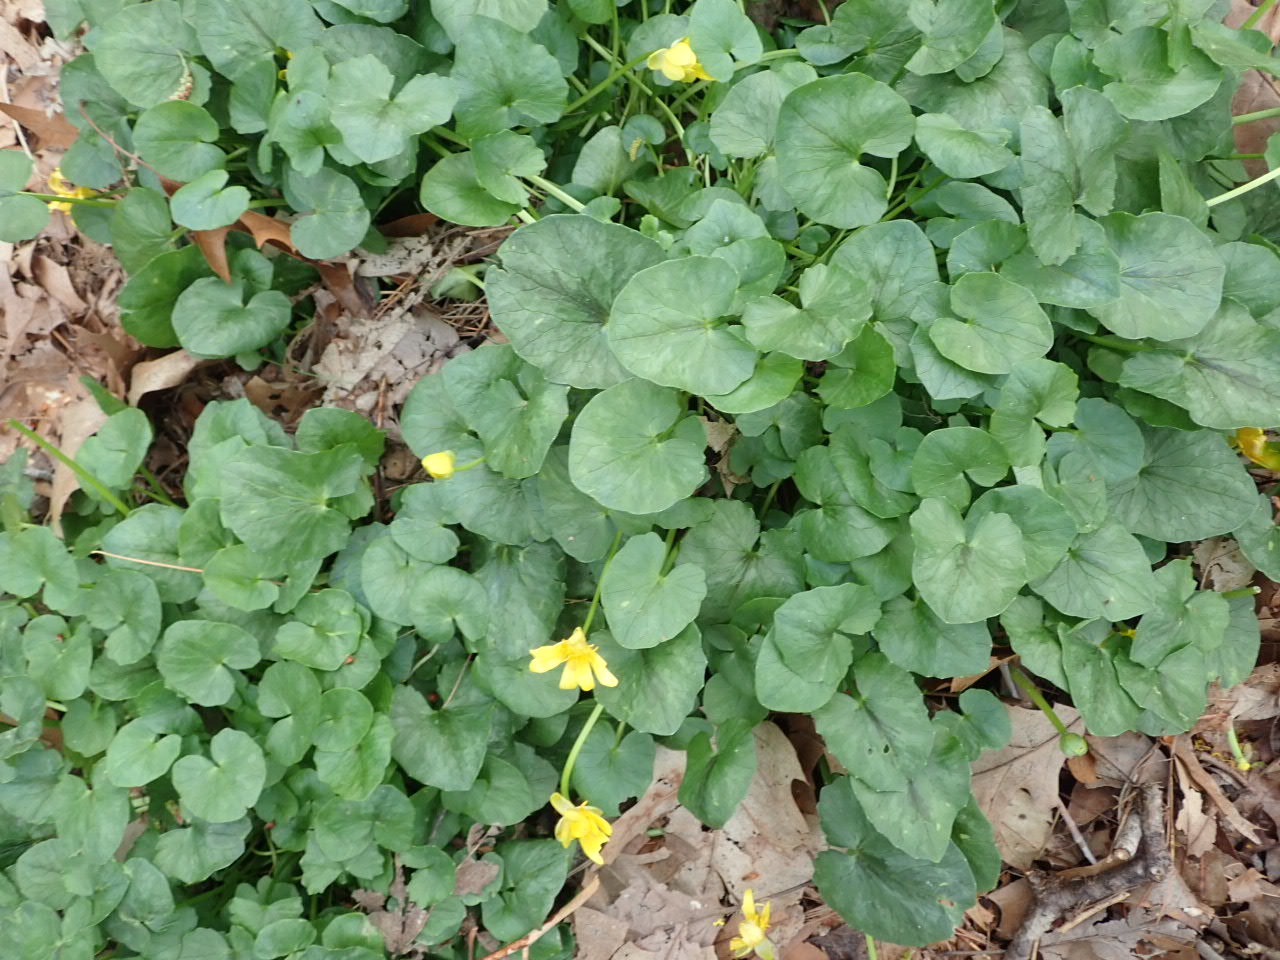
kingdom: Plantae
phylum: Tracheophyta
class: Magnoliopsida
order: Ranunculales
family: Ranunculaceae
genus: Ficaria
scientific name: Ficaria verna
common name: Lesser celandine
